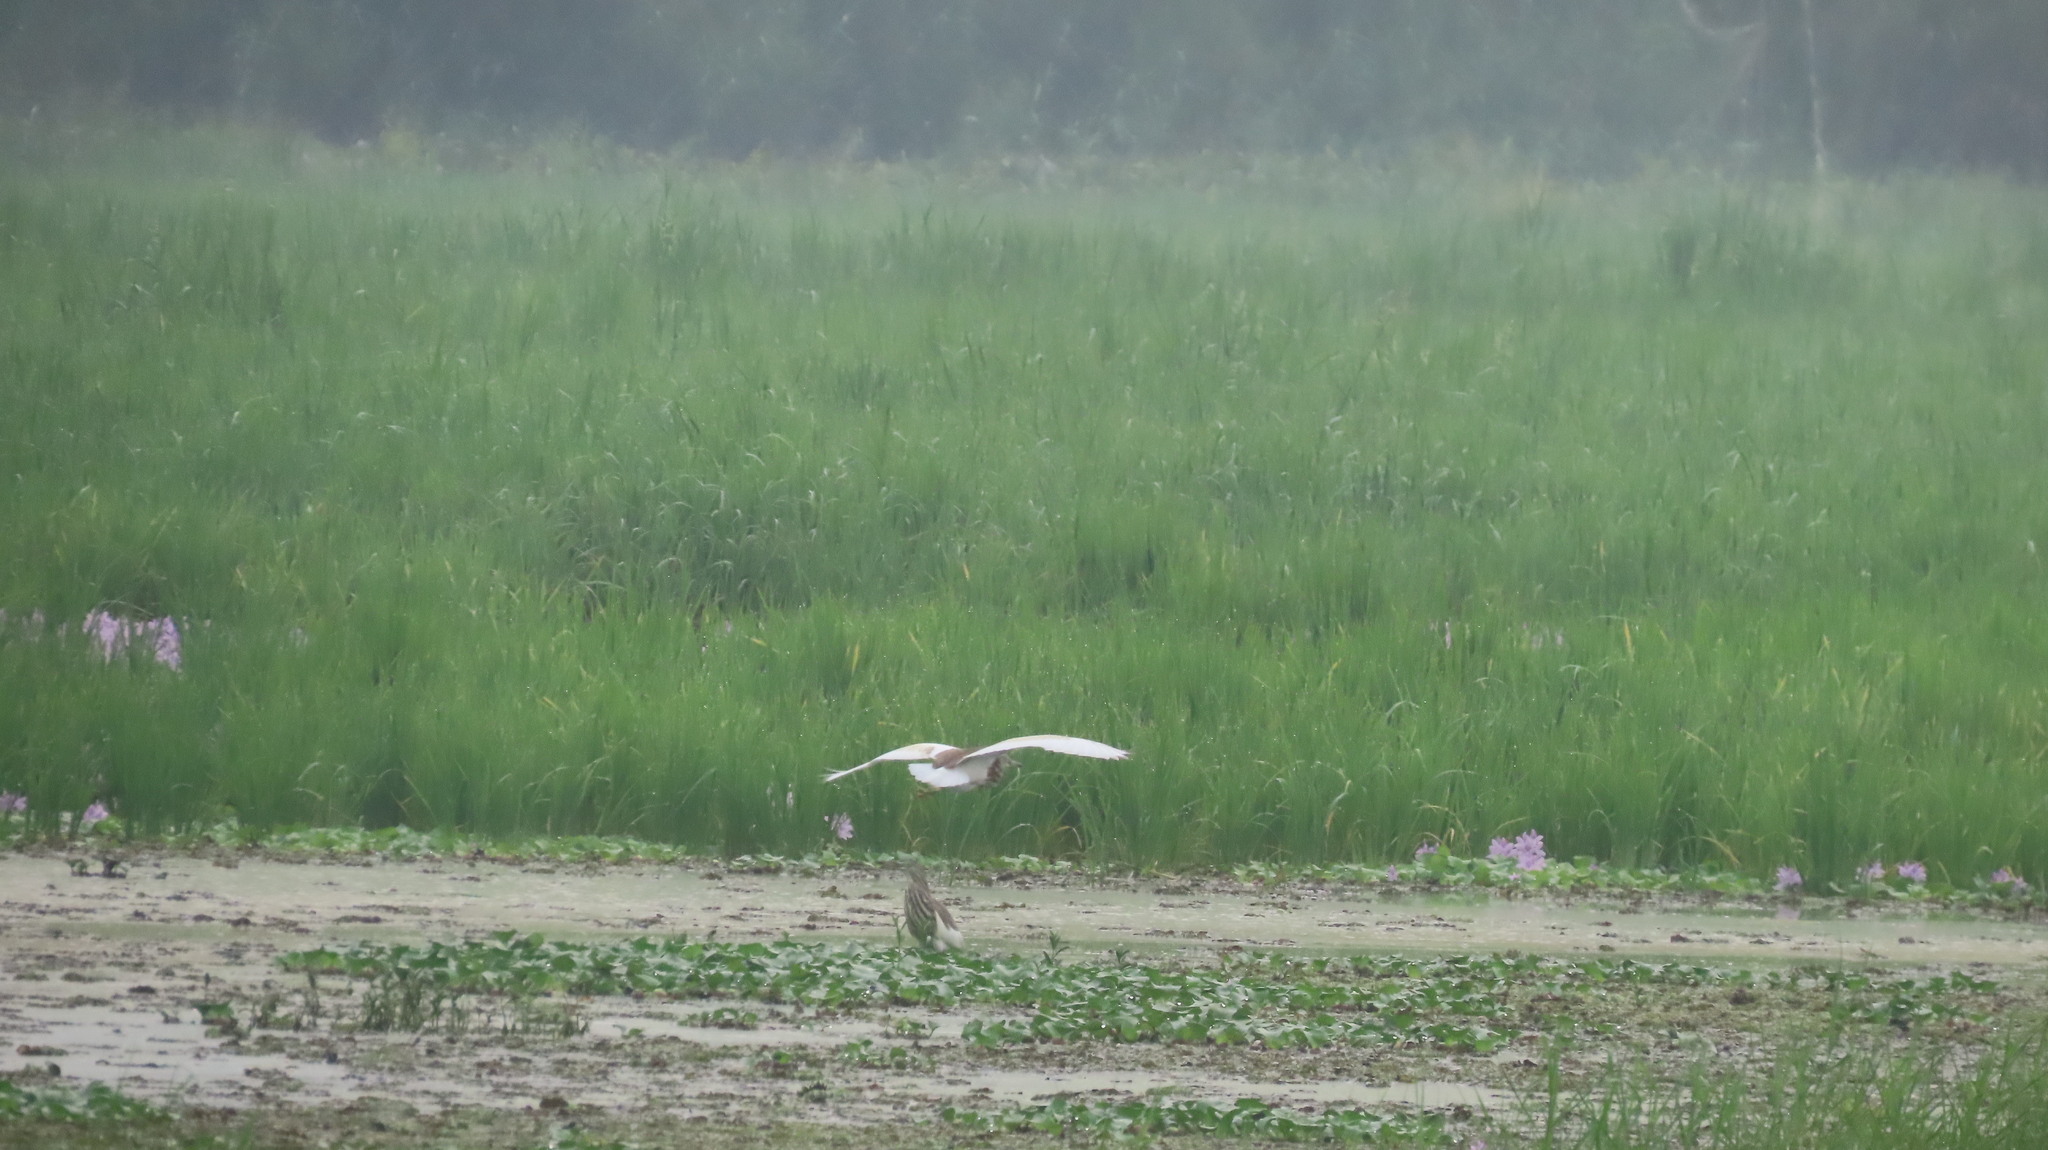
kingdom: Animalia
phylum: Chordata
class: Aves
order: Pelecaniformes
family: Ardeidae
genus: Ardeola
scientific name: Ardeola grayii
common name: Indian pond heron
